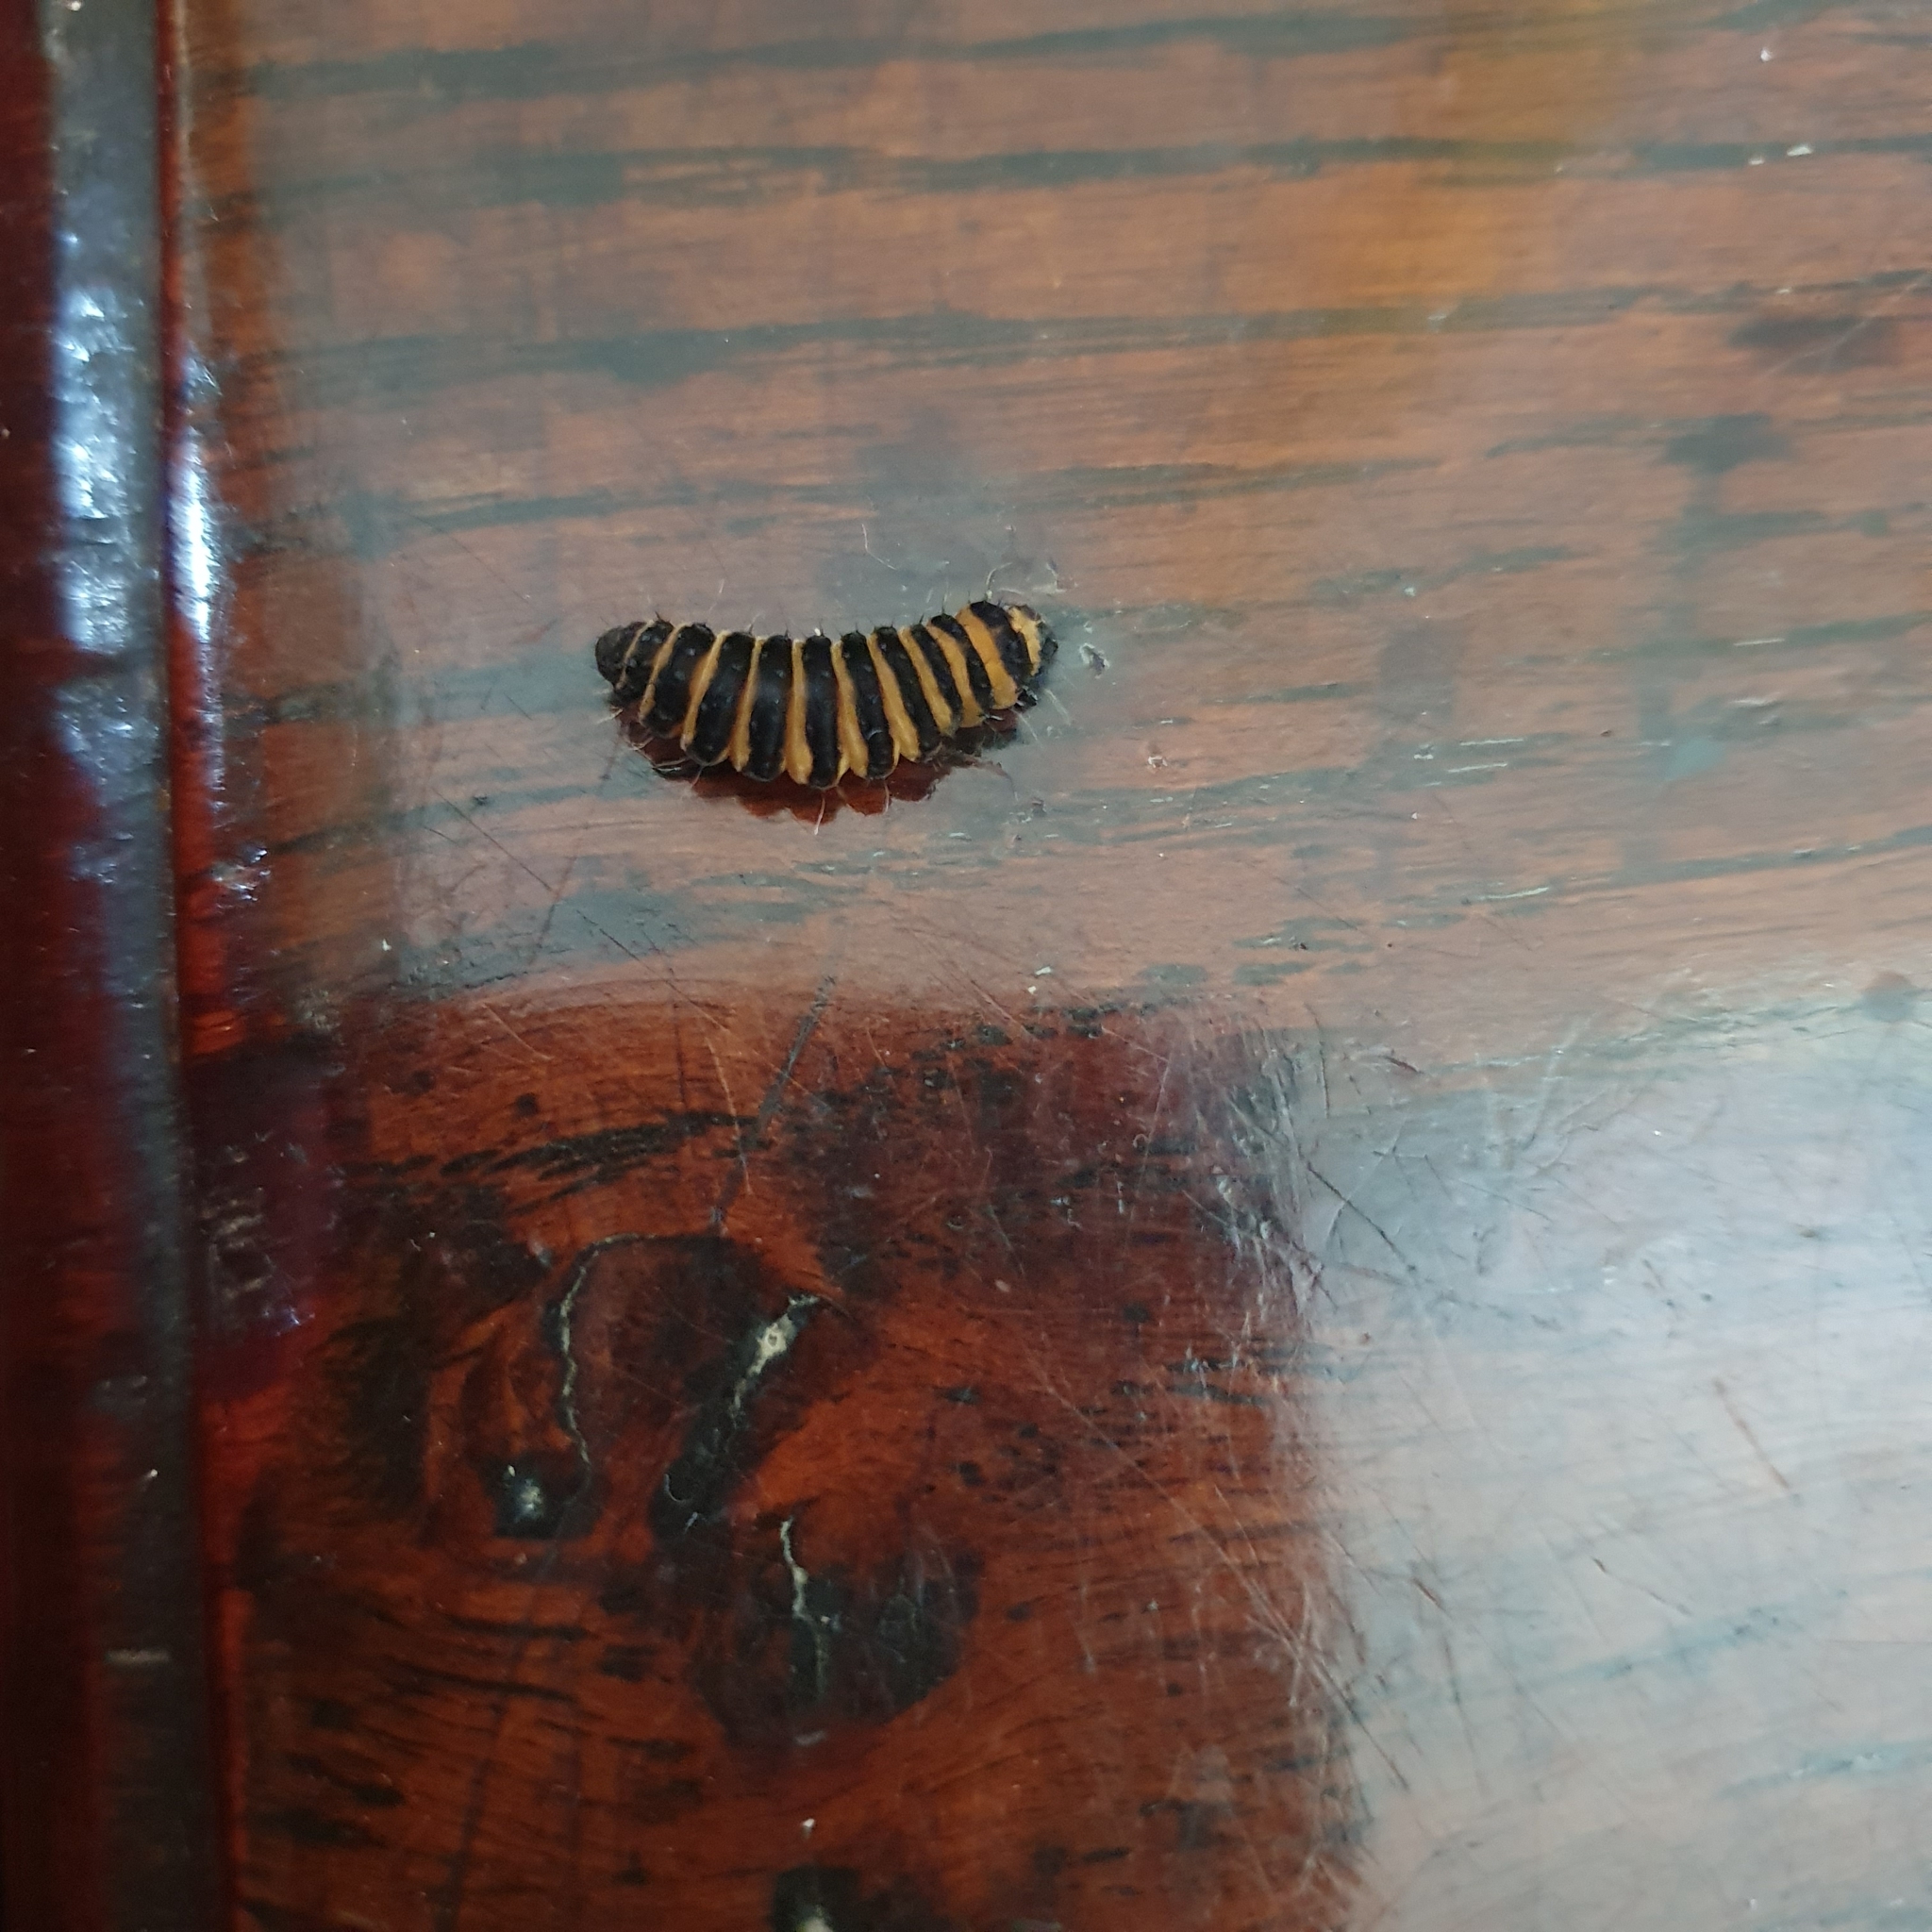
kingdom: Animalia
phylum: Arthropoda
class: Insecta
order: Lepidoptera
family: Erebidae
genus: Tyria
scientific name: Tyria jacobaeae
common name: Cinnabar
